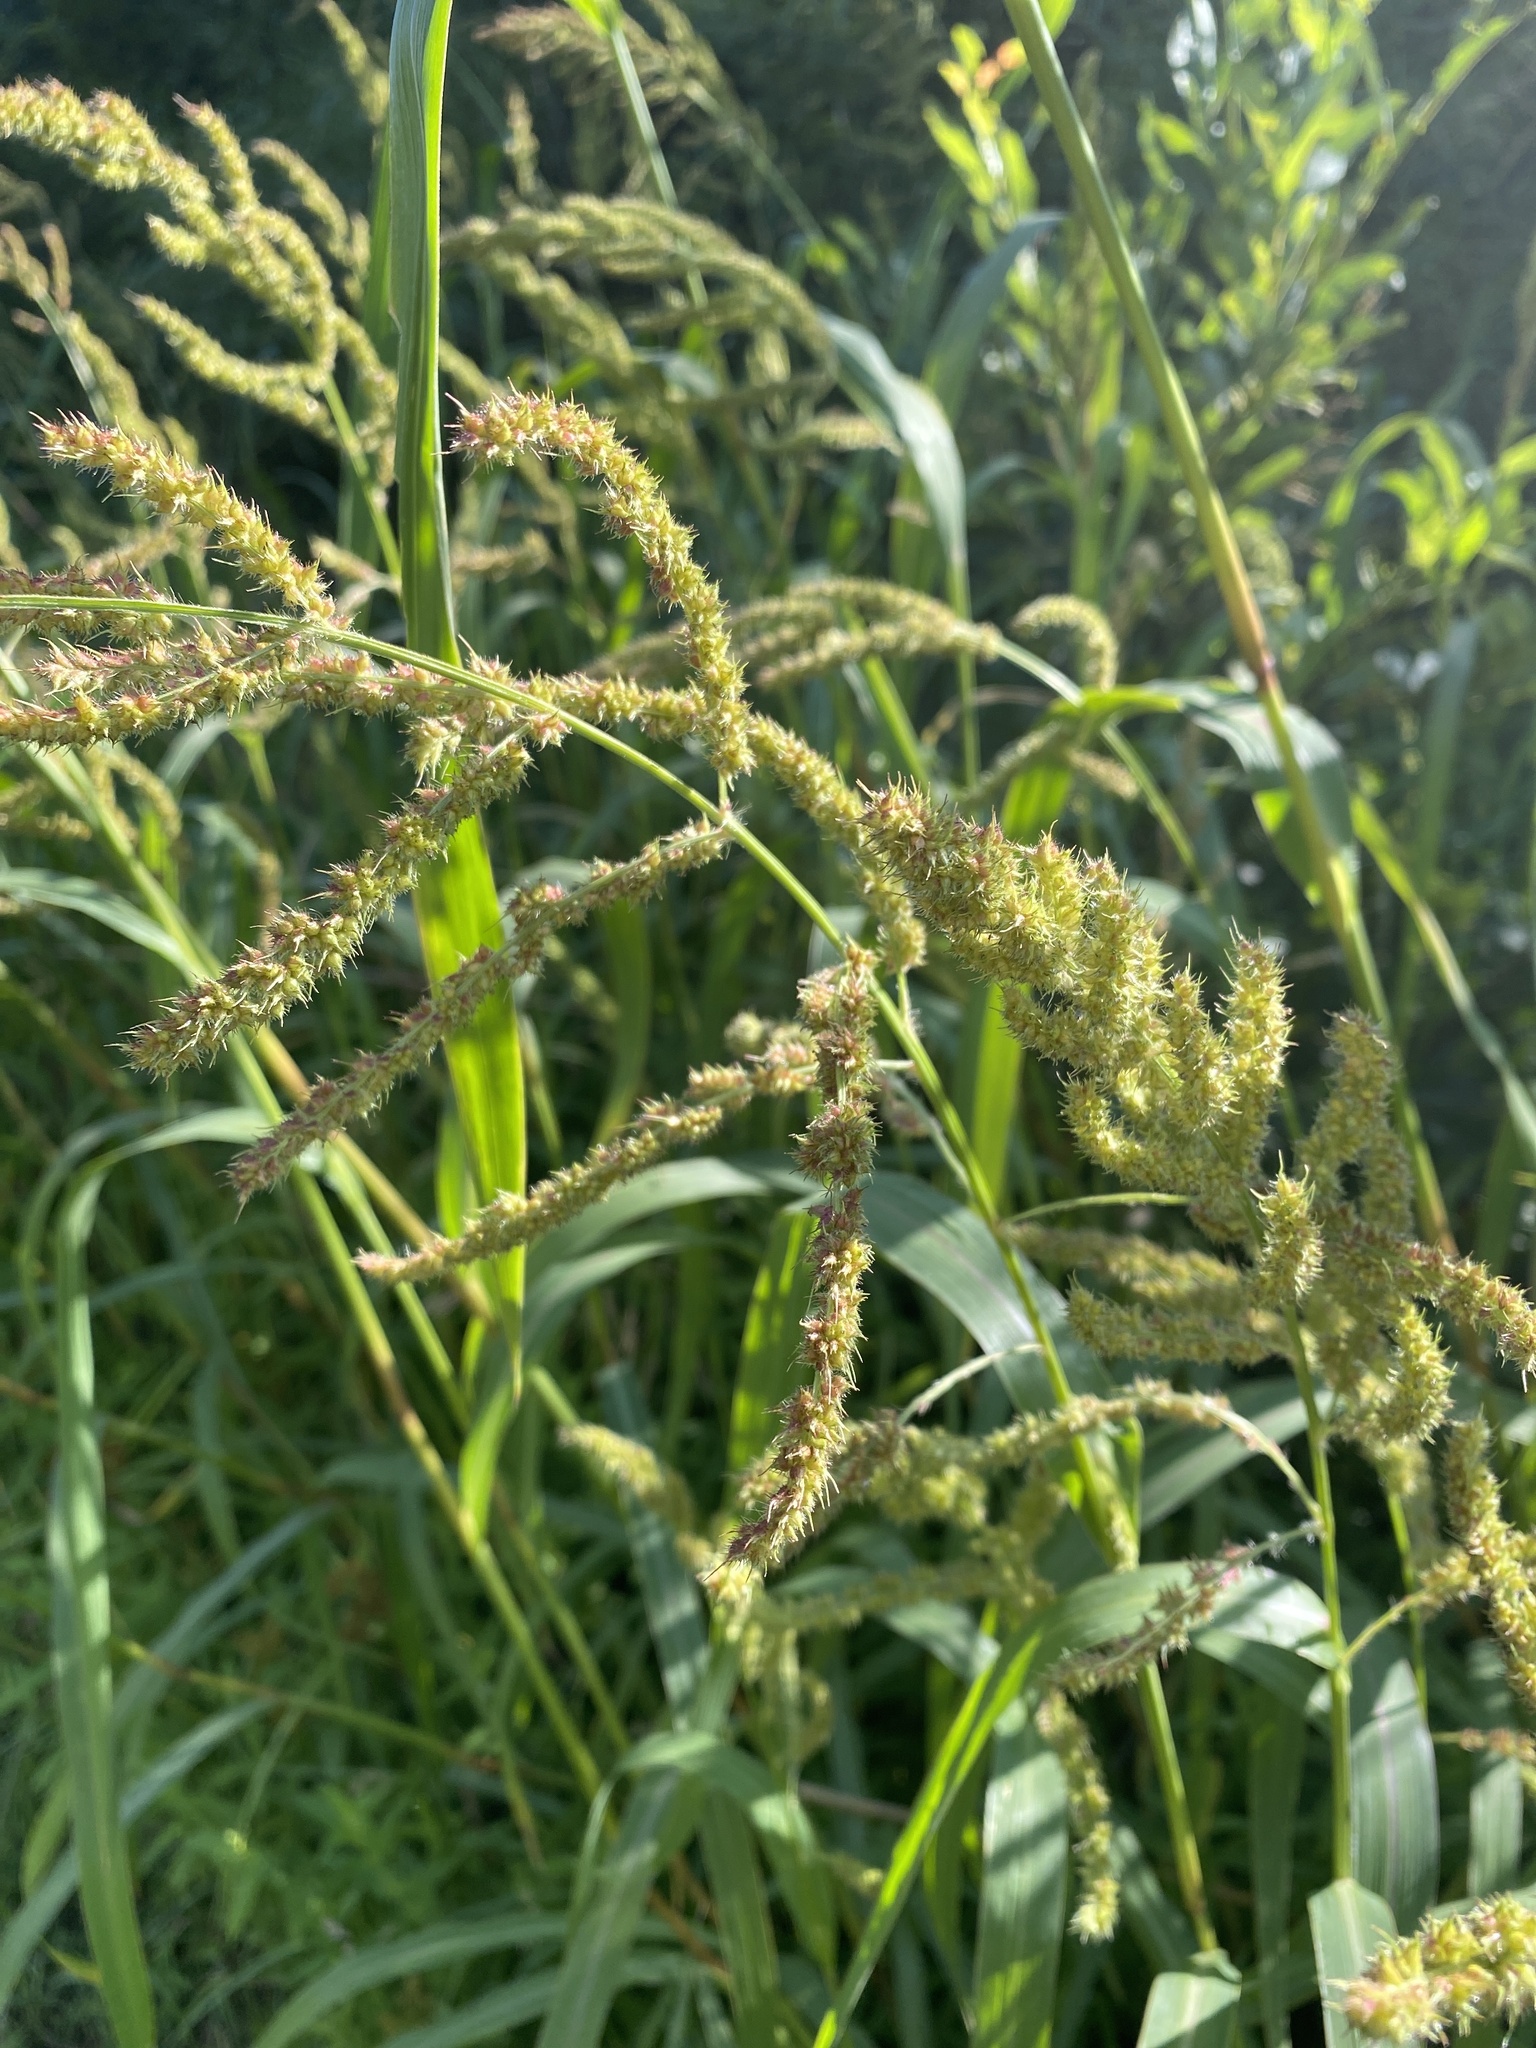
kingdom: Plantae
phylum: Tracheophyta
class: Liliopsida
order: Poales
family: Poaceae
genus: Echinochloa
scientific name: Echinochloa crus-galli
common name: Cockspur
